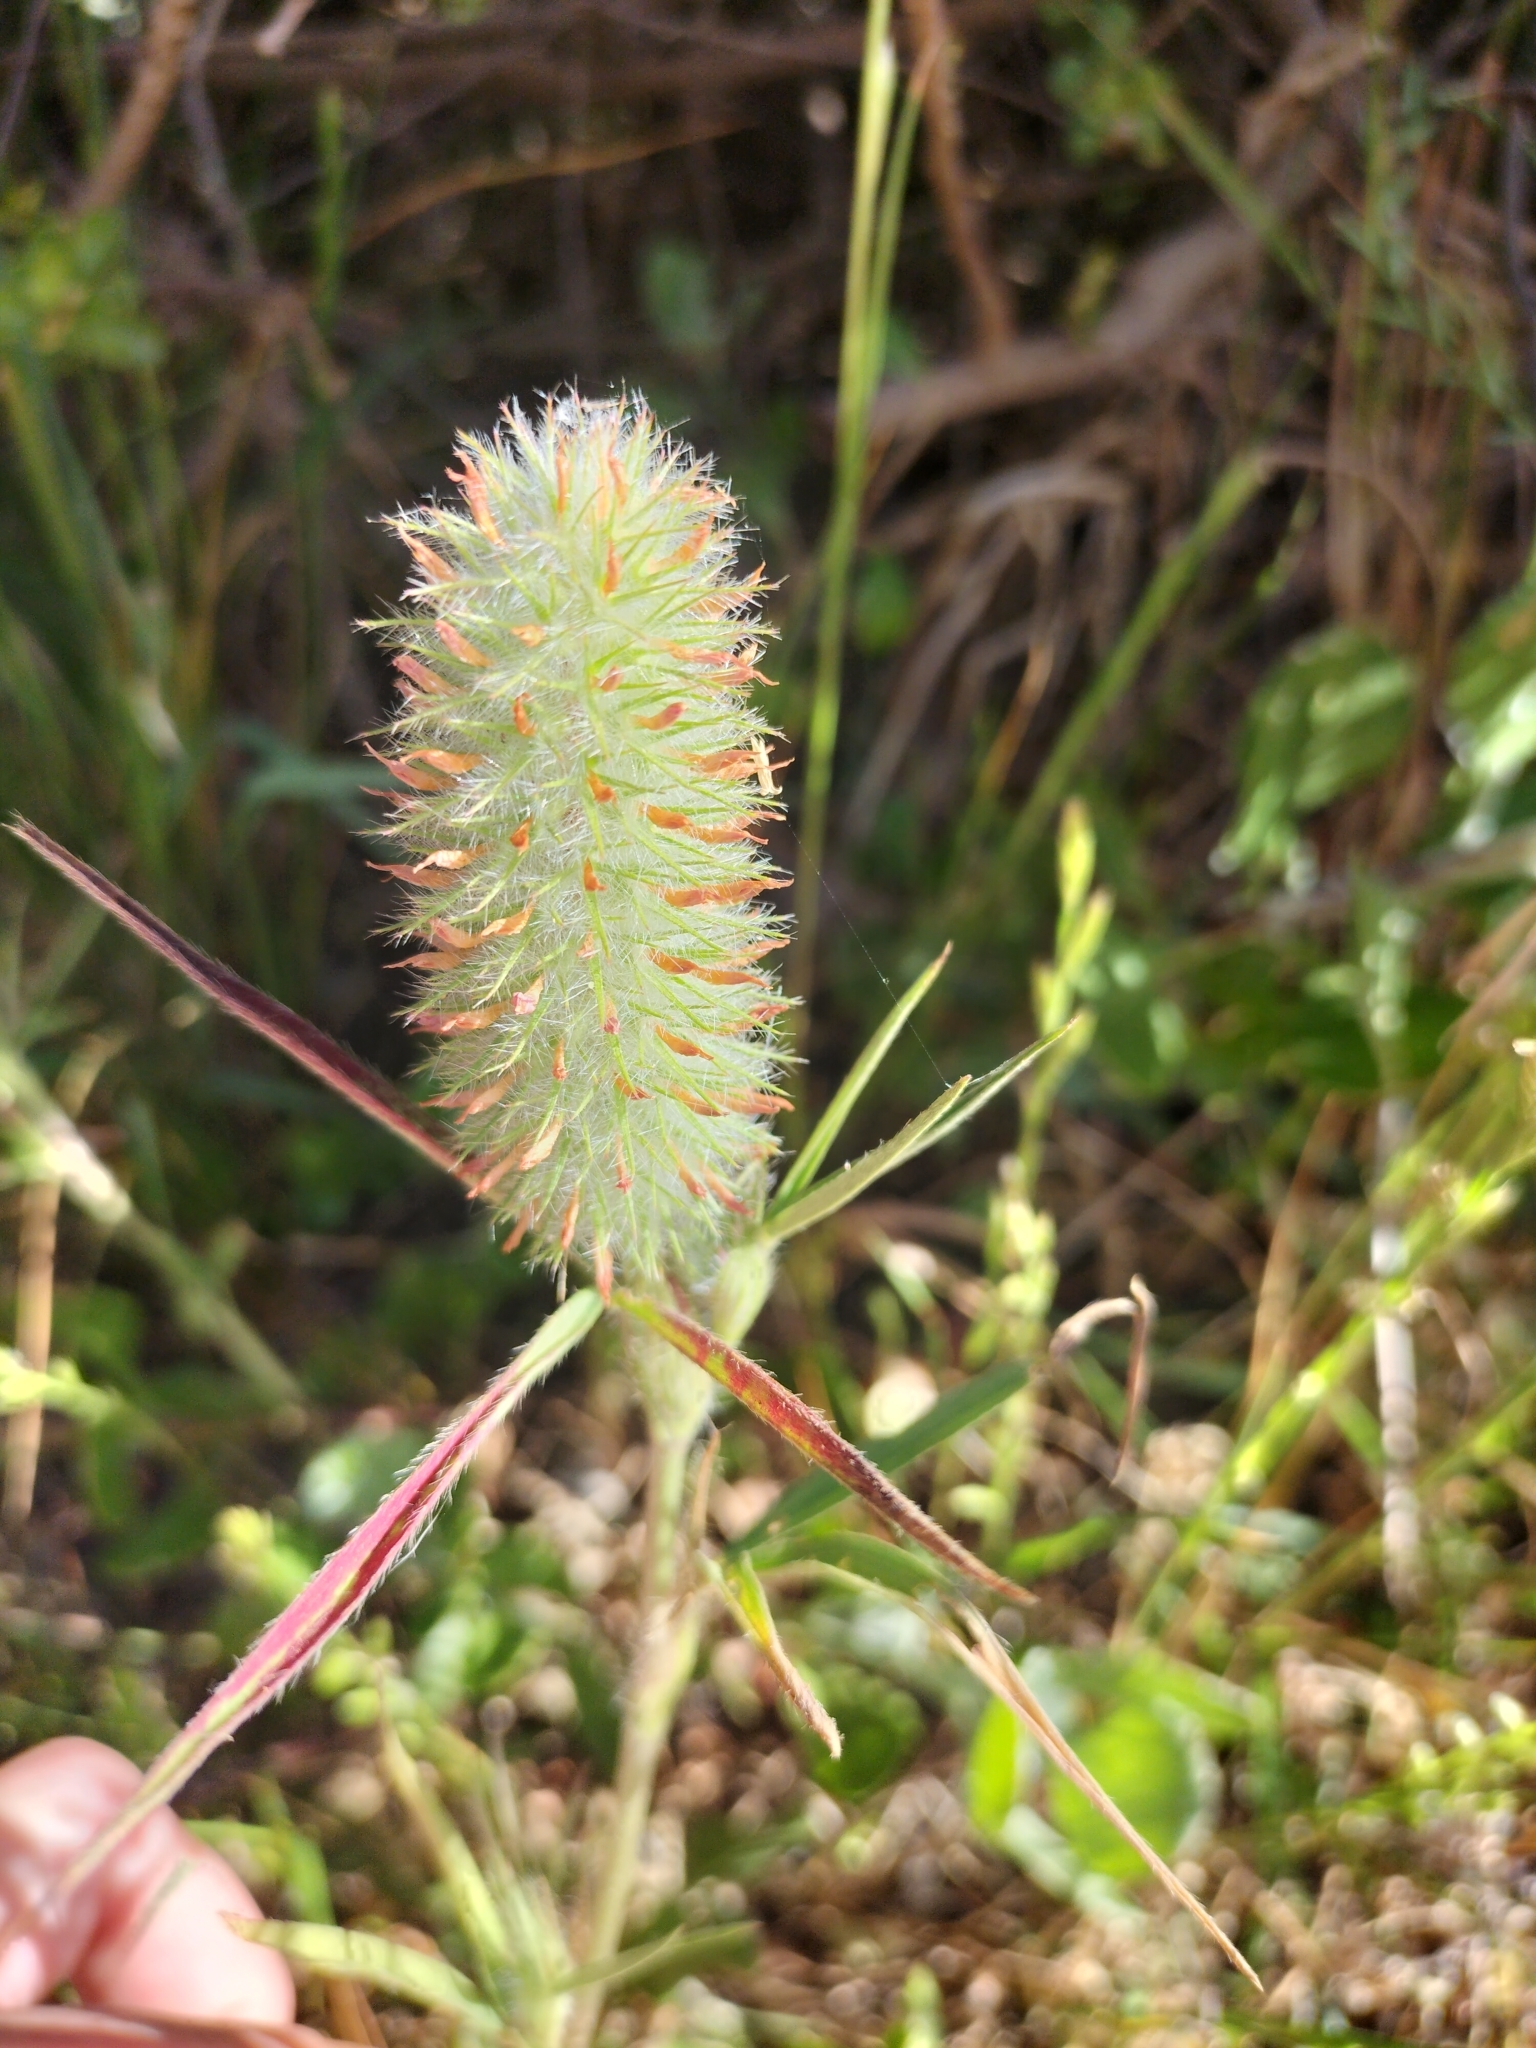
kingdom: Plantae
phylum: Tracheophyta
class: Magnoliopsida
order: Fabales
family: Fabaceae
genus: Trifolium
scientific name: Trifolium angustifolium
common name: Narrow clover
